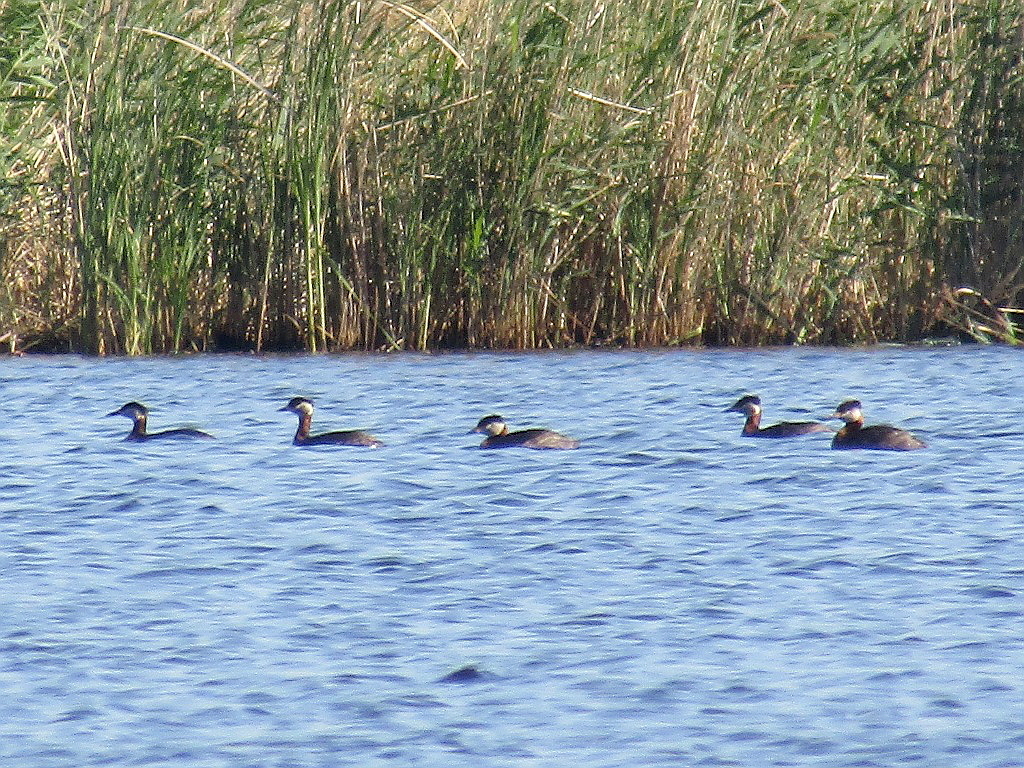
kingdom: Animalia
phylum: Chordata
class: Aves
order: Podicipediformes
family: Podicipedidae
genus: Podiceps
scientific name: Podiceps grisegena
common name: Red-necked grebe
